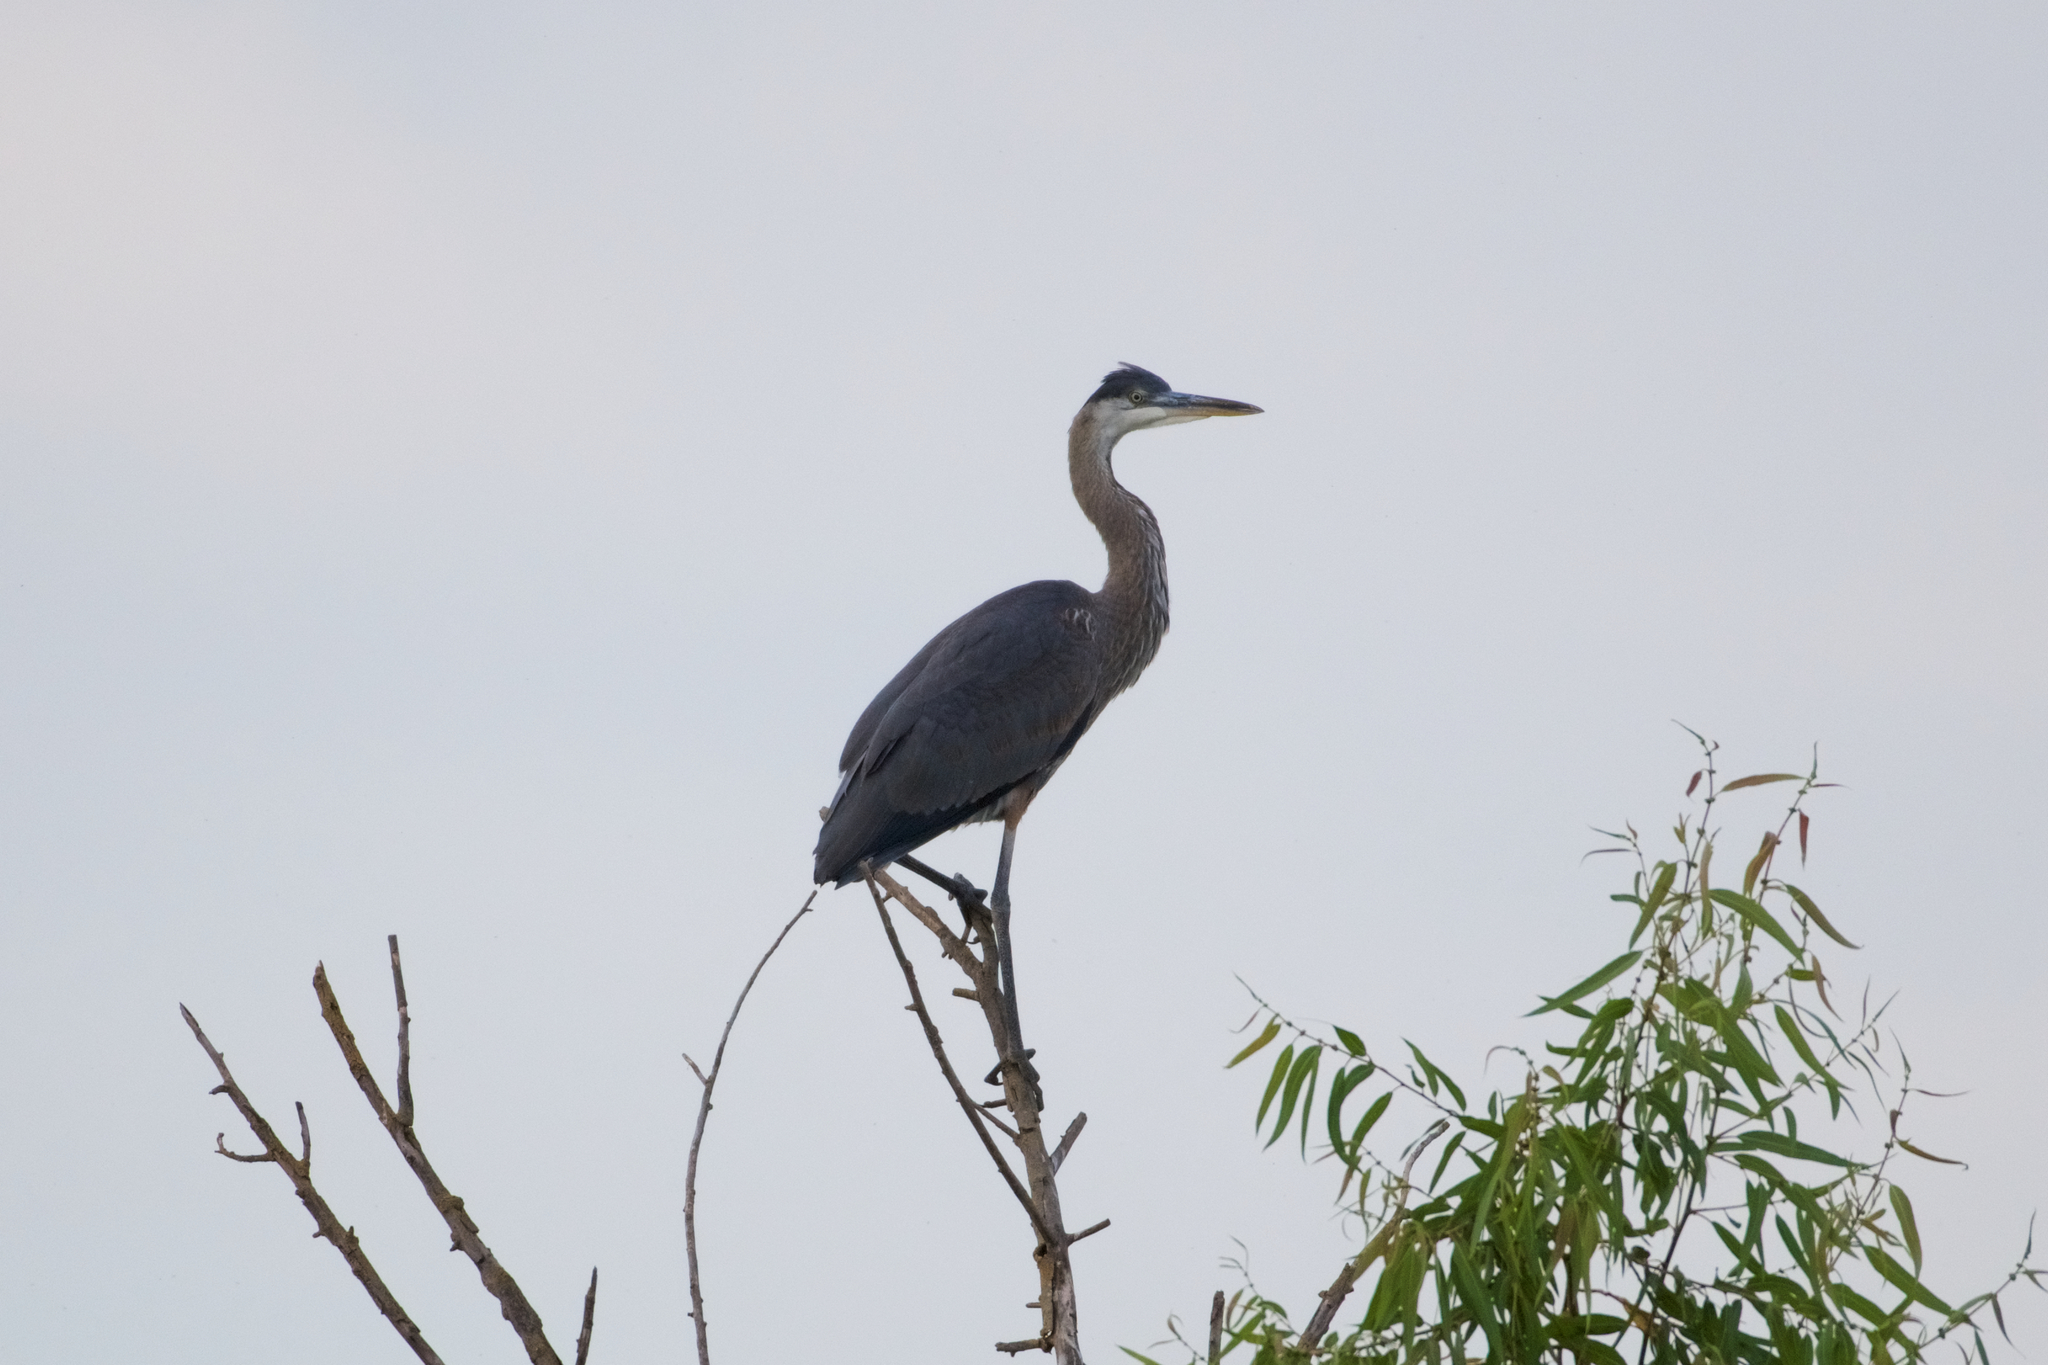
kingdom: Animalia
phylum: Chordata
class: Aves
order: Pelecaniformes
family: Ardeidae
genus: Ardea
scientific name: Ardea herodias
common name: Great blue heron
